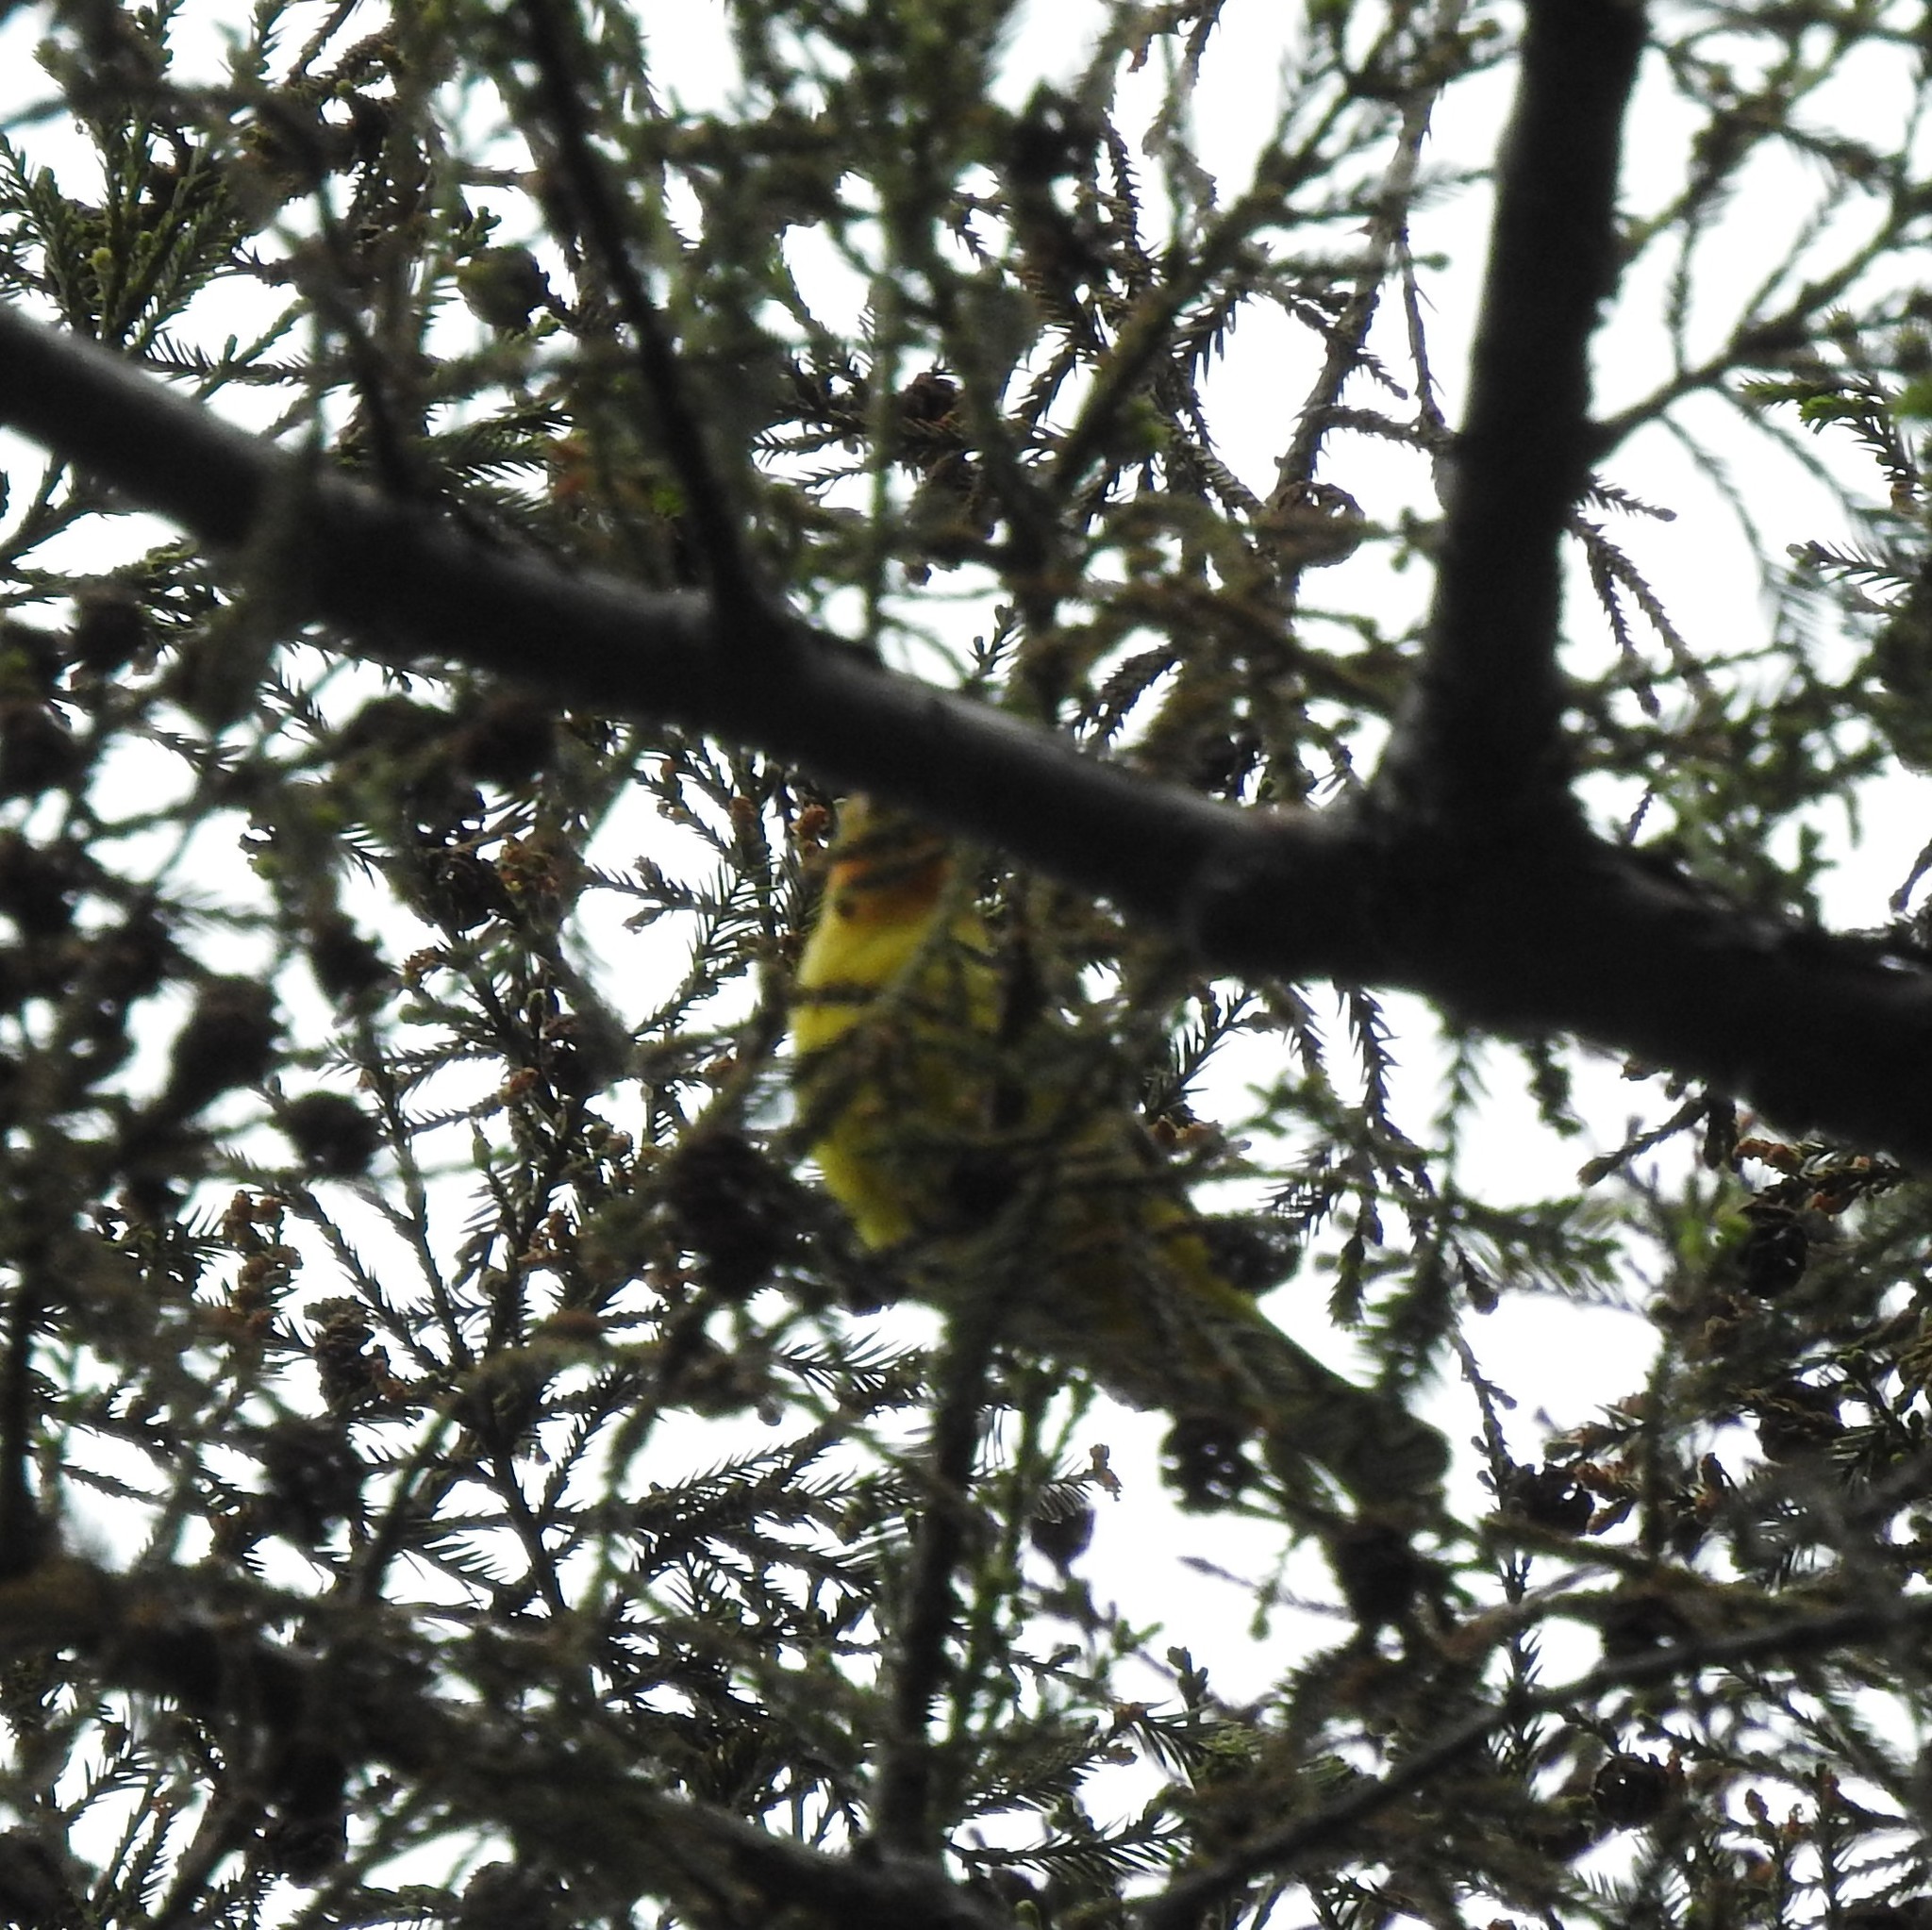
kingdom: Animalia
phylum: Chordata
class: Aves
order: Passeriformes
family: Cardinalidae
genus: Piranga
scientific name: Piranga ludoviciana
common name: Western tanager
